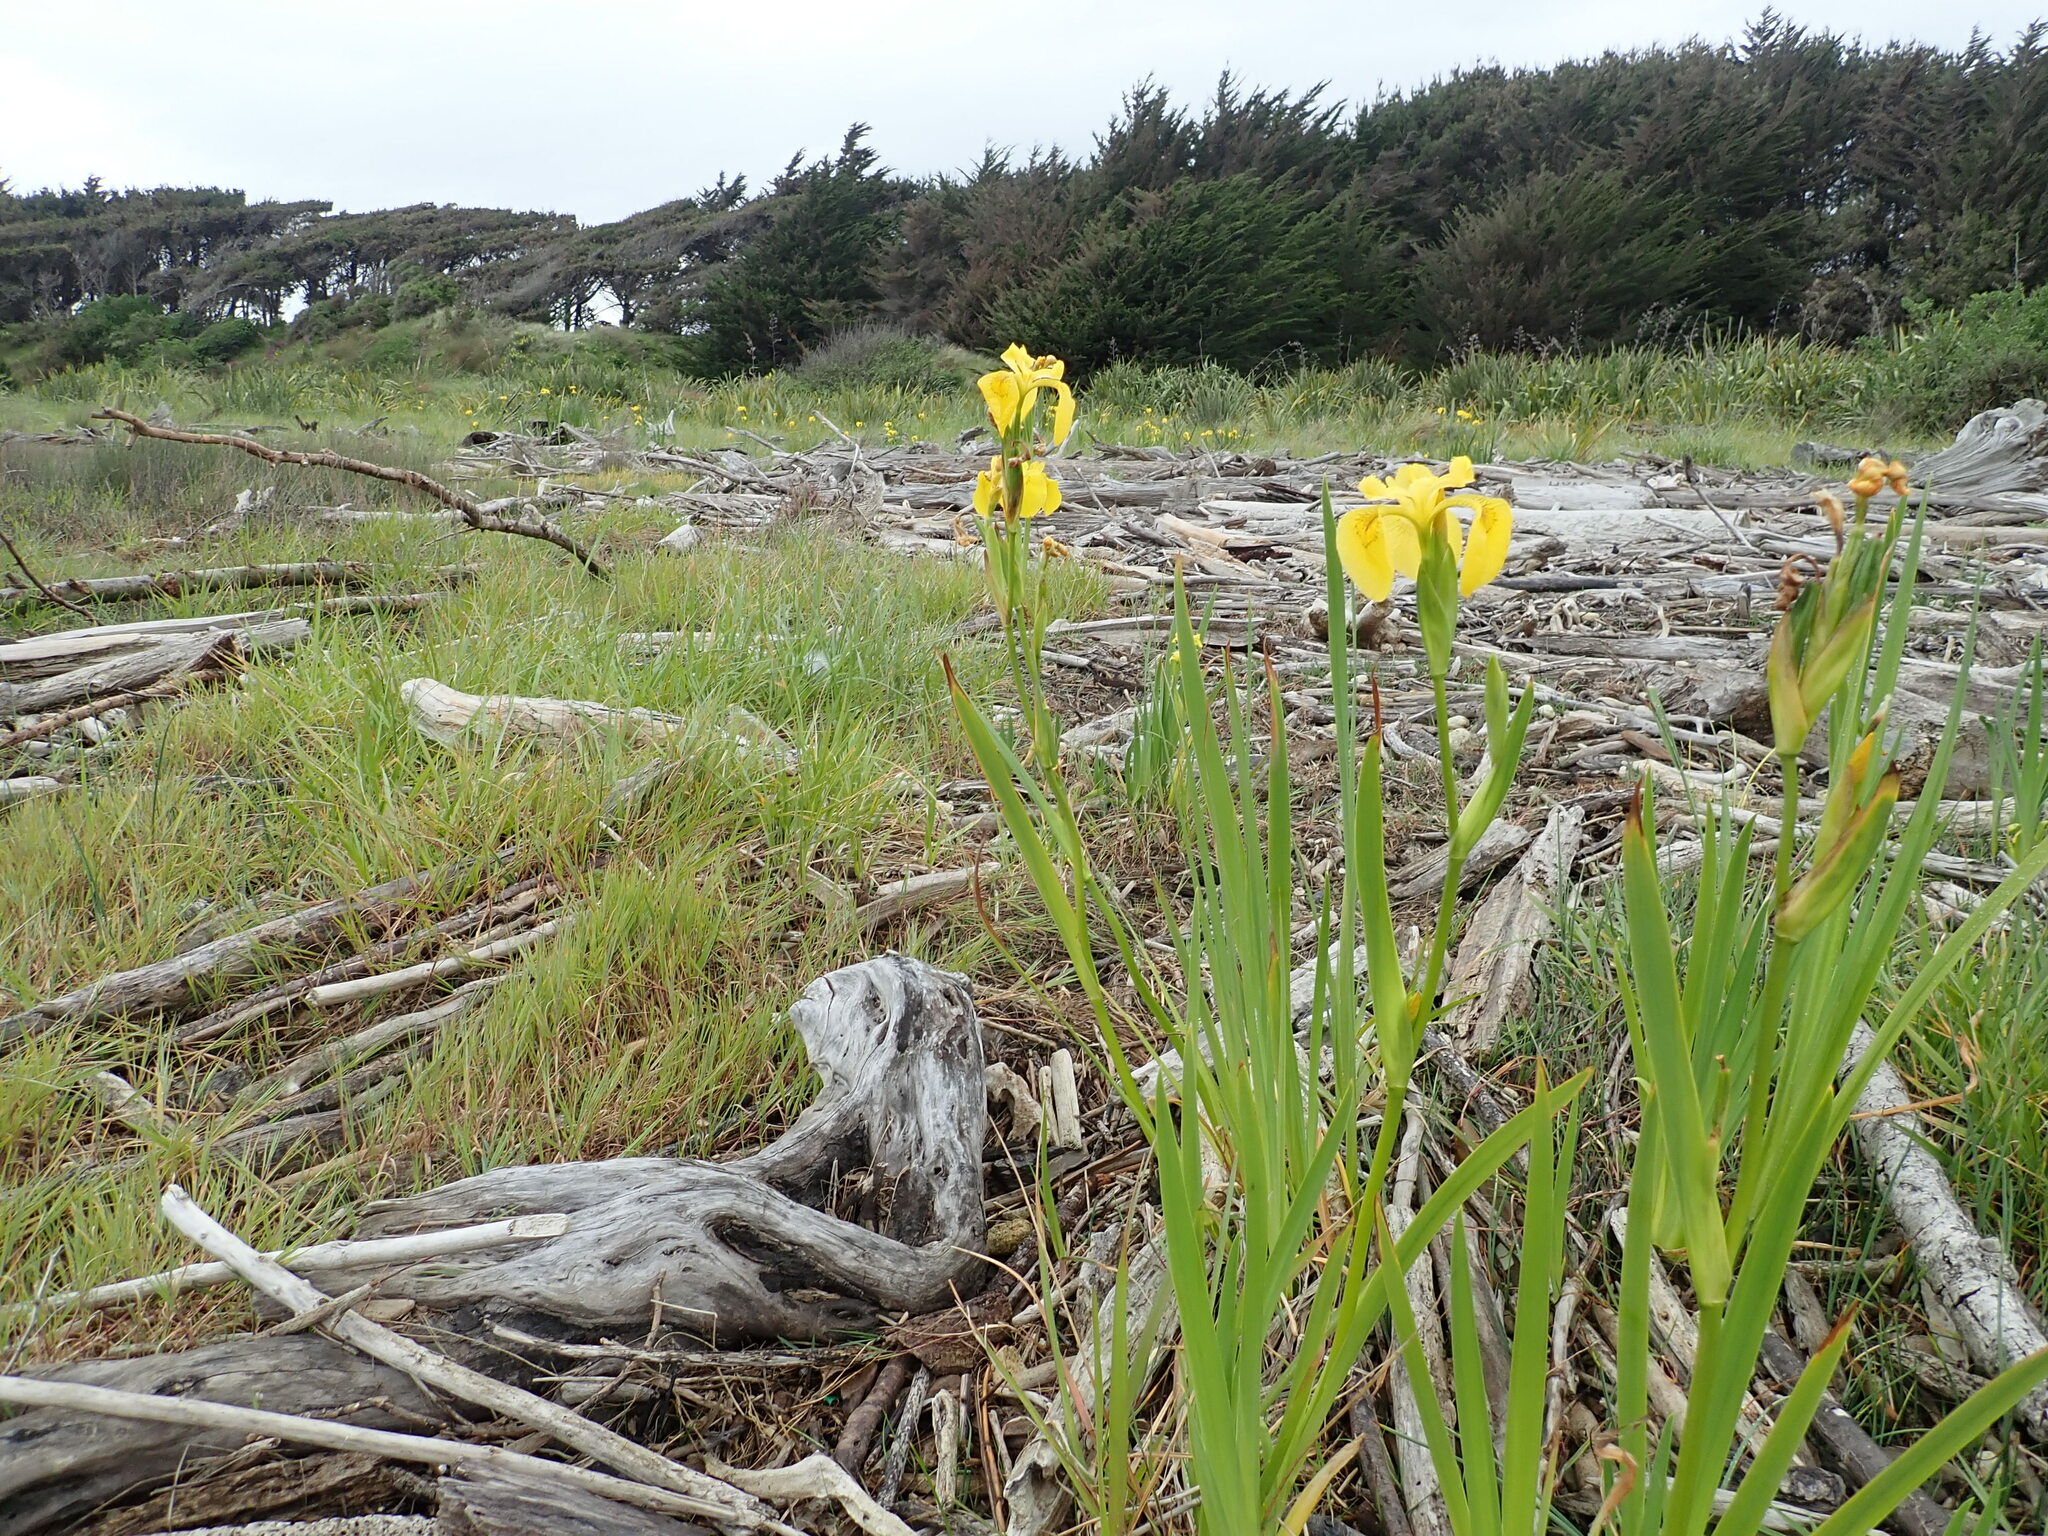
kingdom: Plantae
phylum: Tracheophyta
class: Liliopsida
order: Asparagales
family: Iridaceae
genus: Iris
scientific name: Iris pseudacorus
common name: Yellow flag
